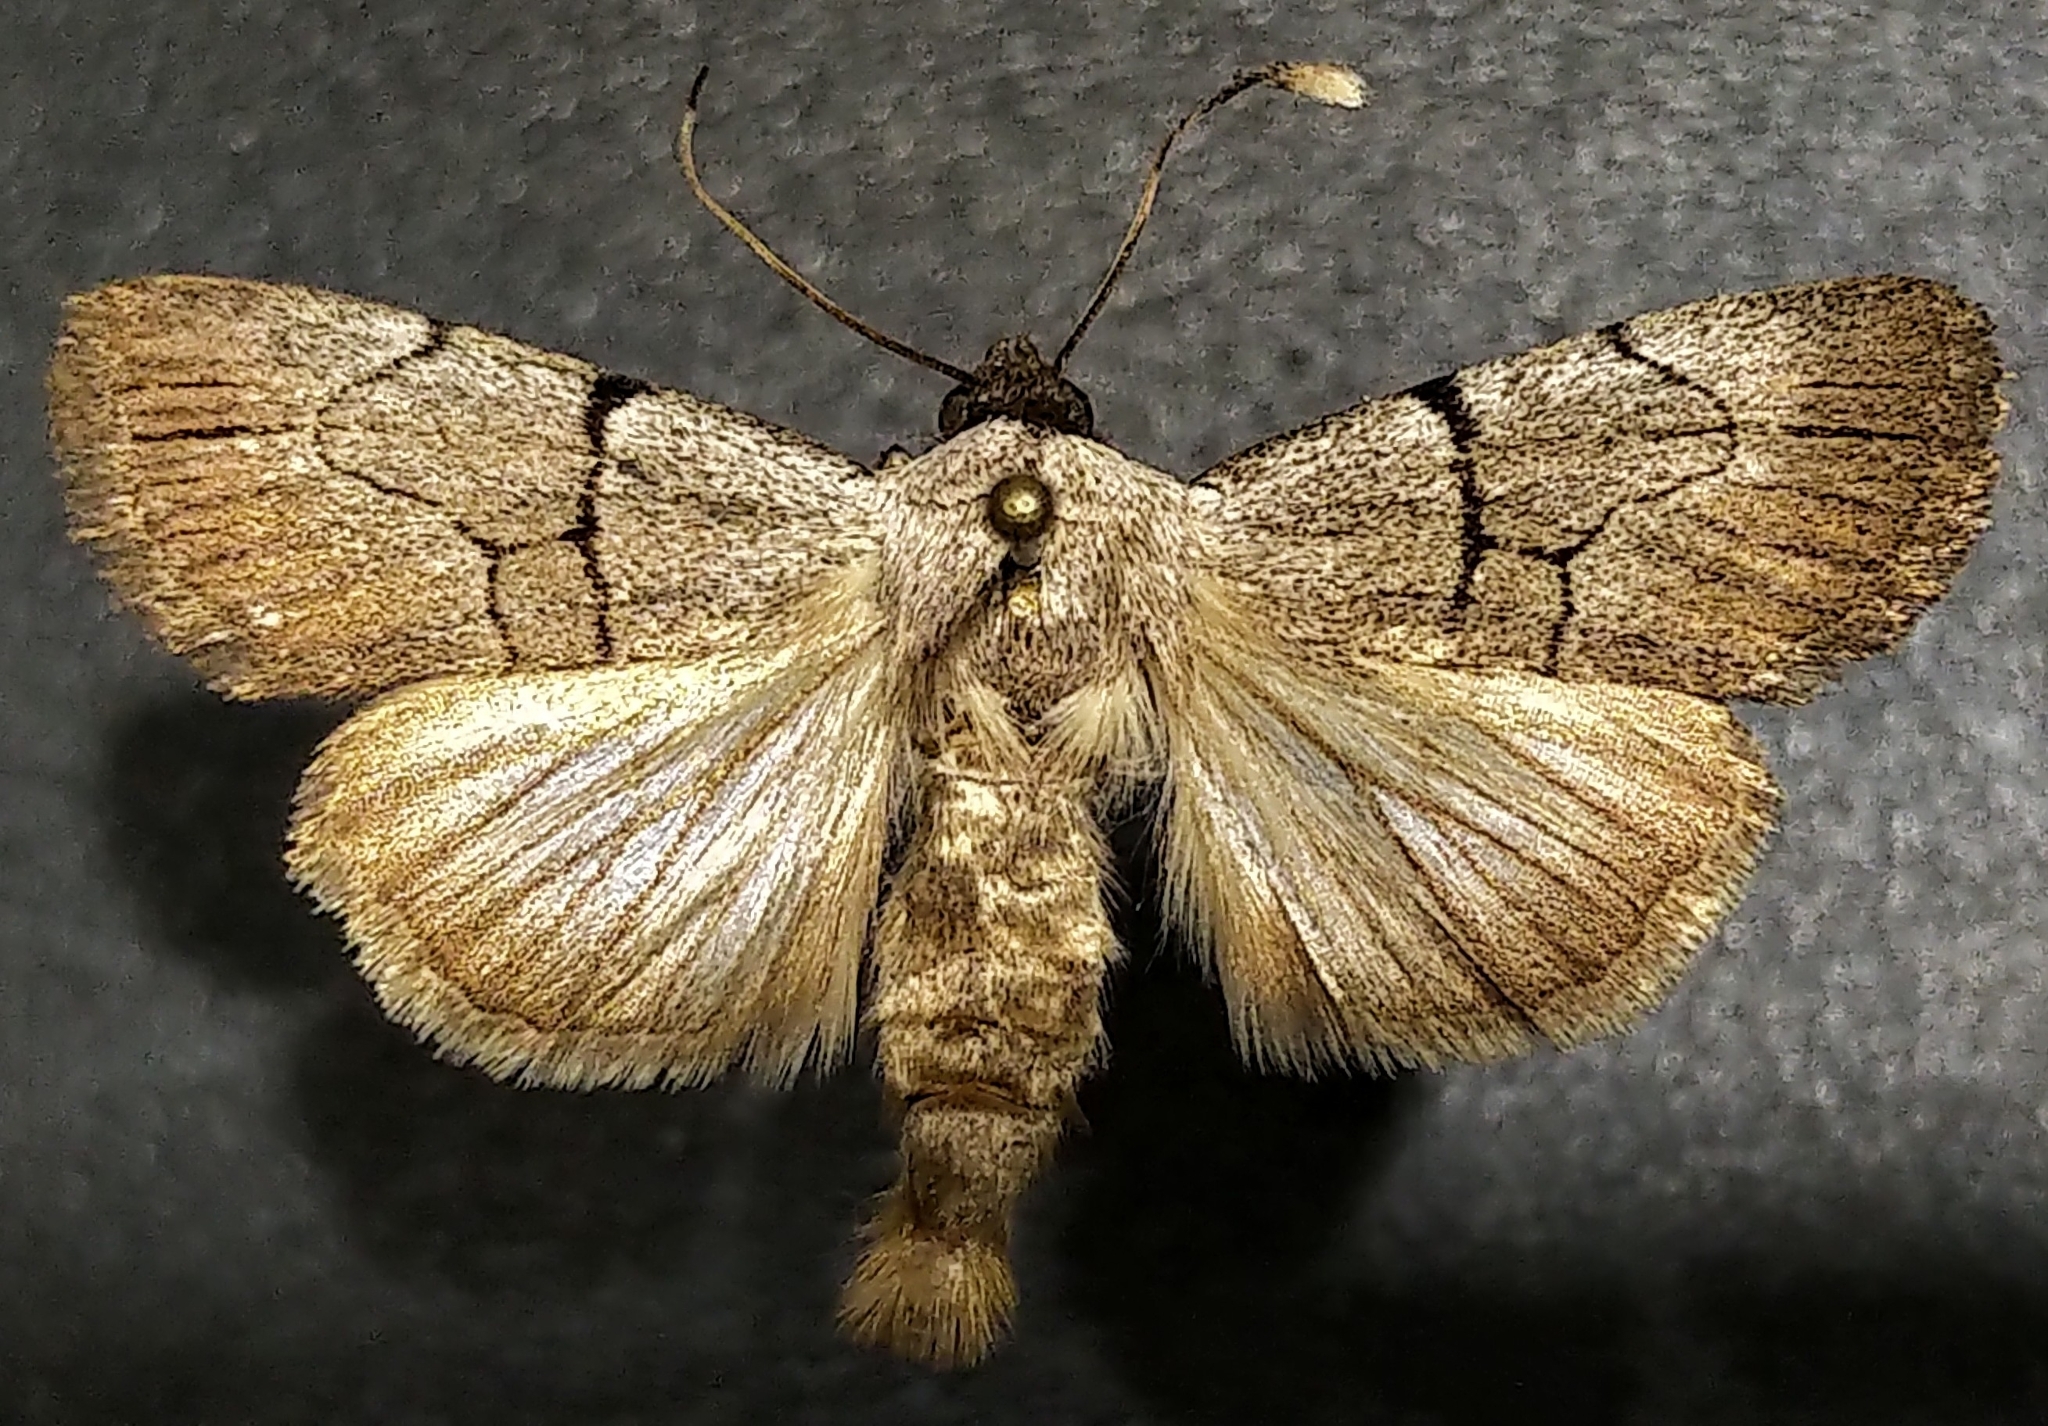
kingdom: Animalia
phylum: Arthropoda
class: Insecta
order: Lepidoptera
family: Noctuidae
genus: Sympistis
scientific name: Sympistis greyi
